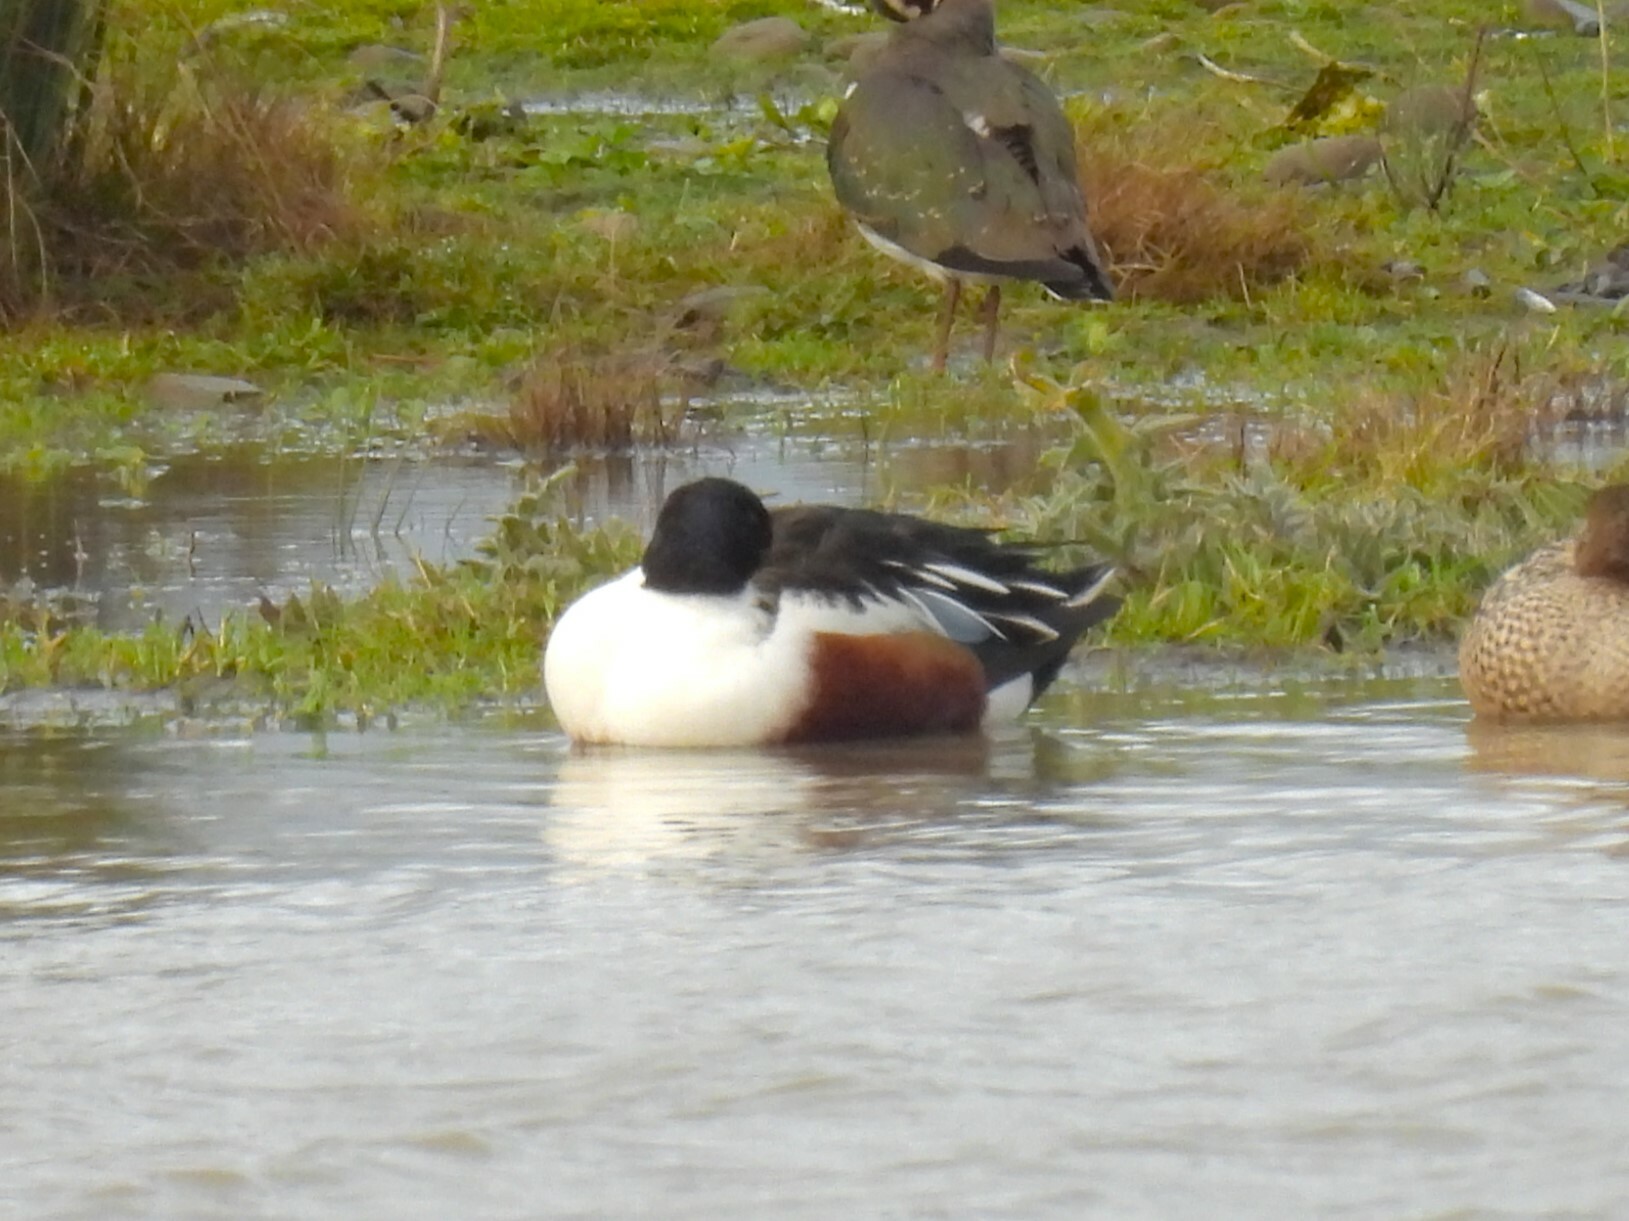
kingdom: Animalia
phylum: Chordata
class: Aves
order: Anseriformes
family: Anatidae
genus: Spatula
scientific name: Spatula clypeata
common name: Northern shoveler
